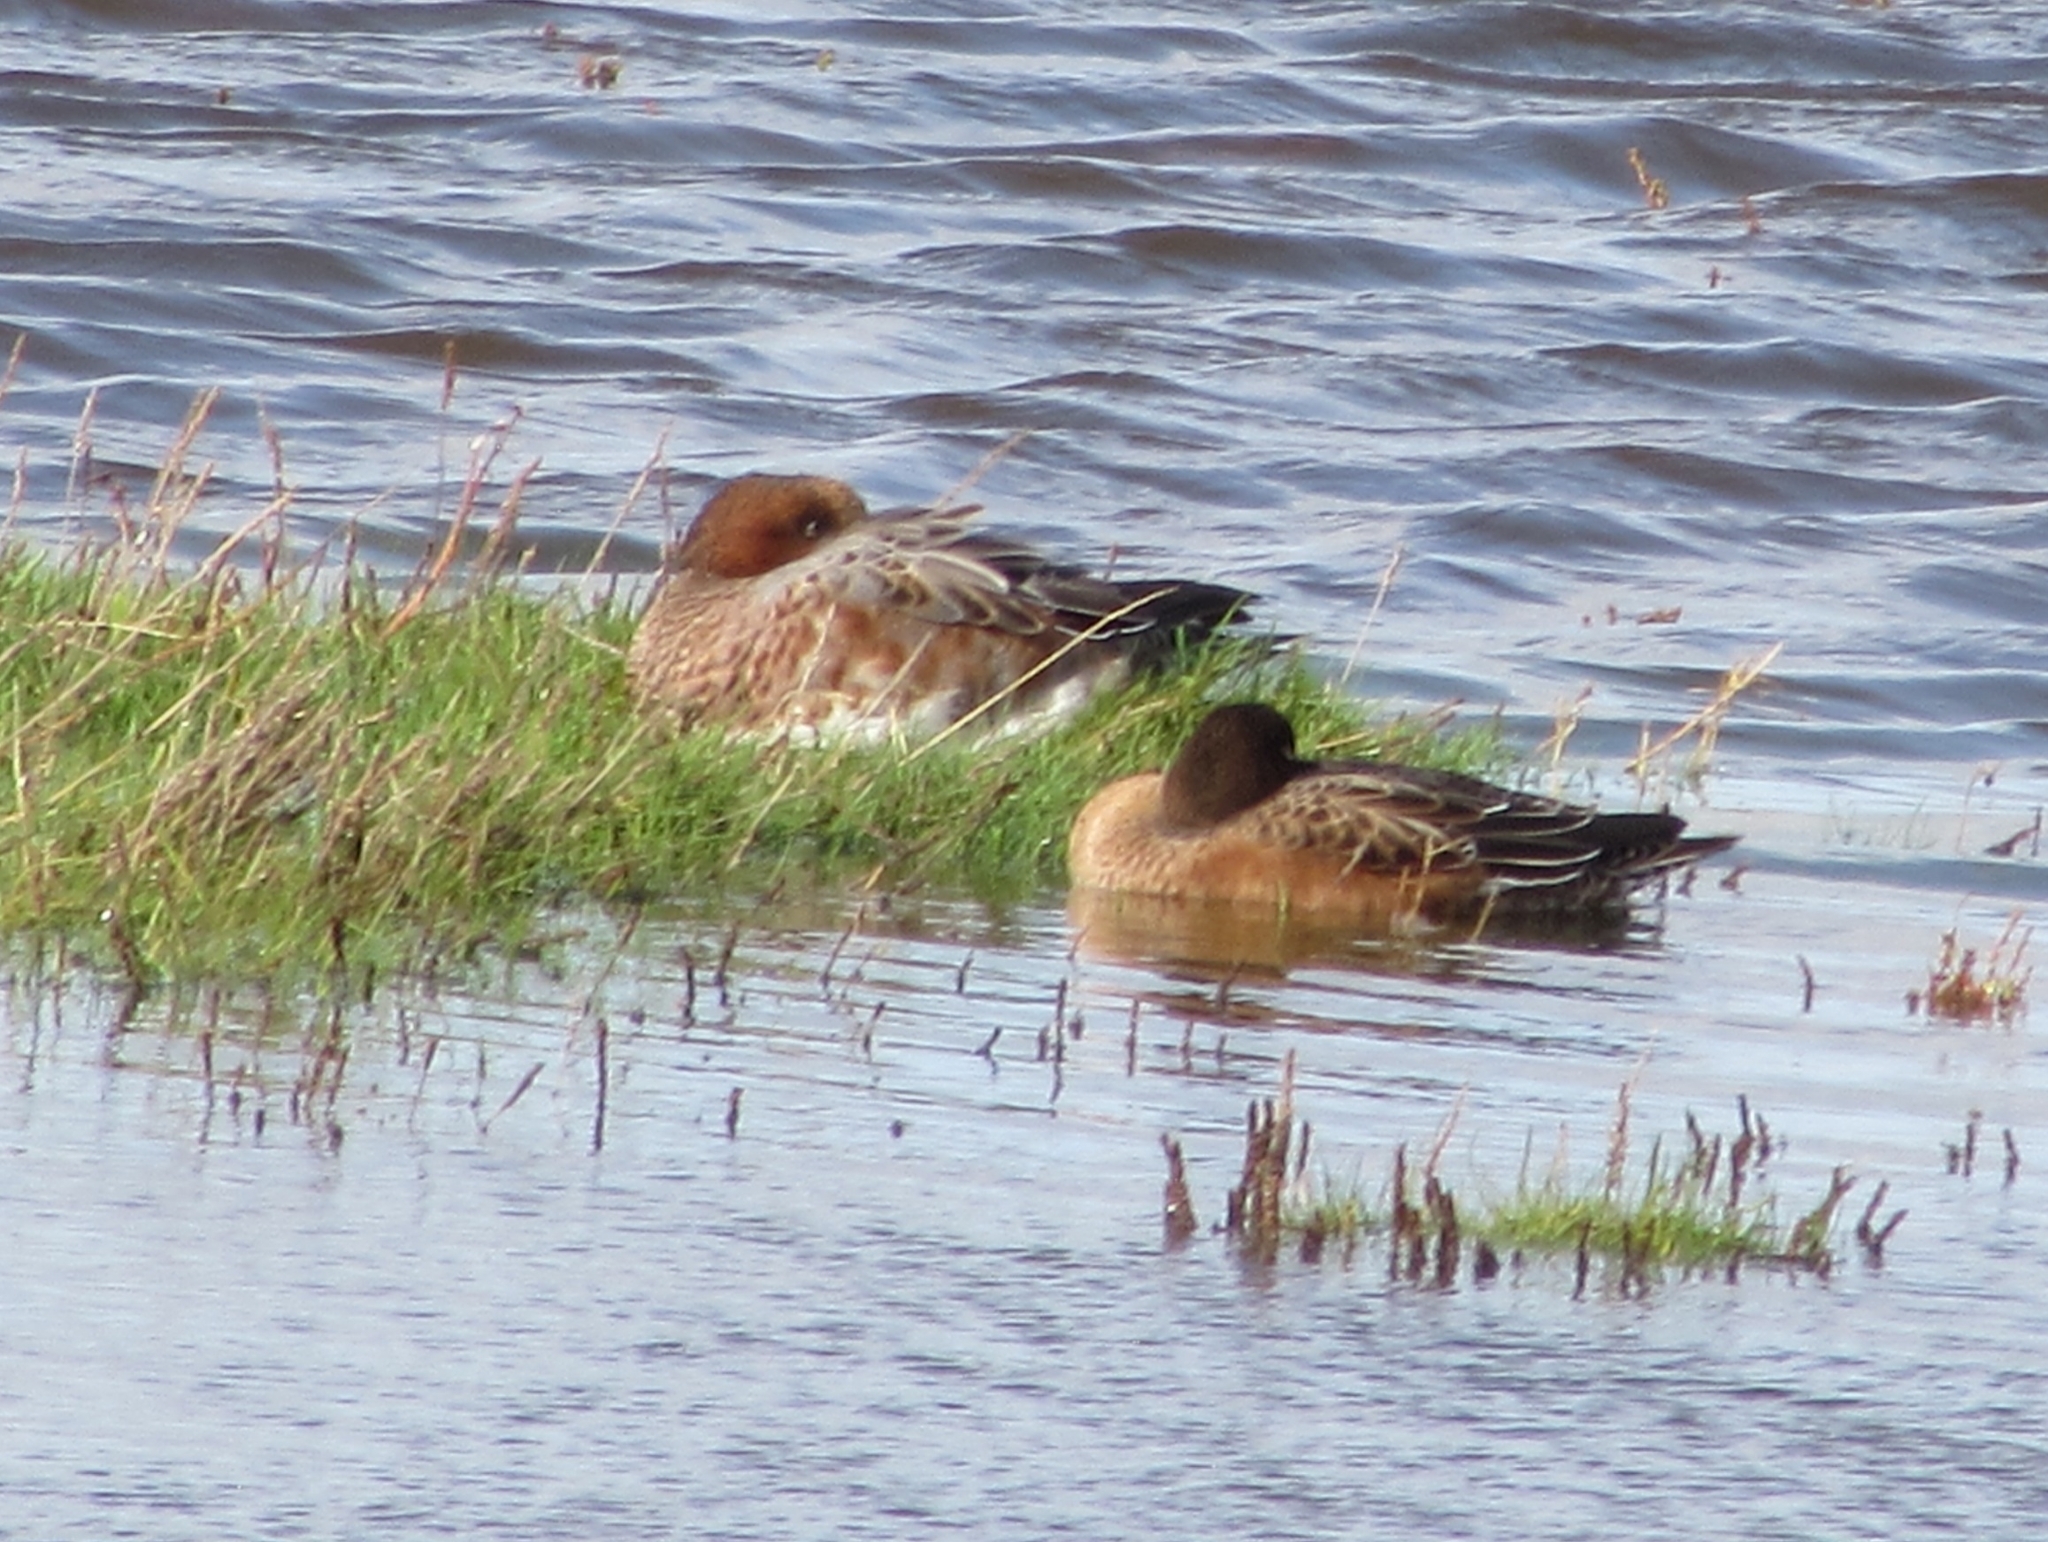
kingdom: Animalia
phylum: Chordata
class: Aves
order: Anseriformes
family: Anatidae
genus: Mareca
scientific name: Mareca penelope
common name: Eurasian wigeon
